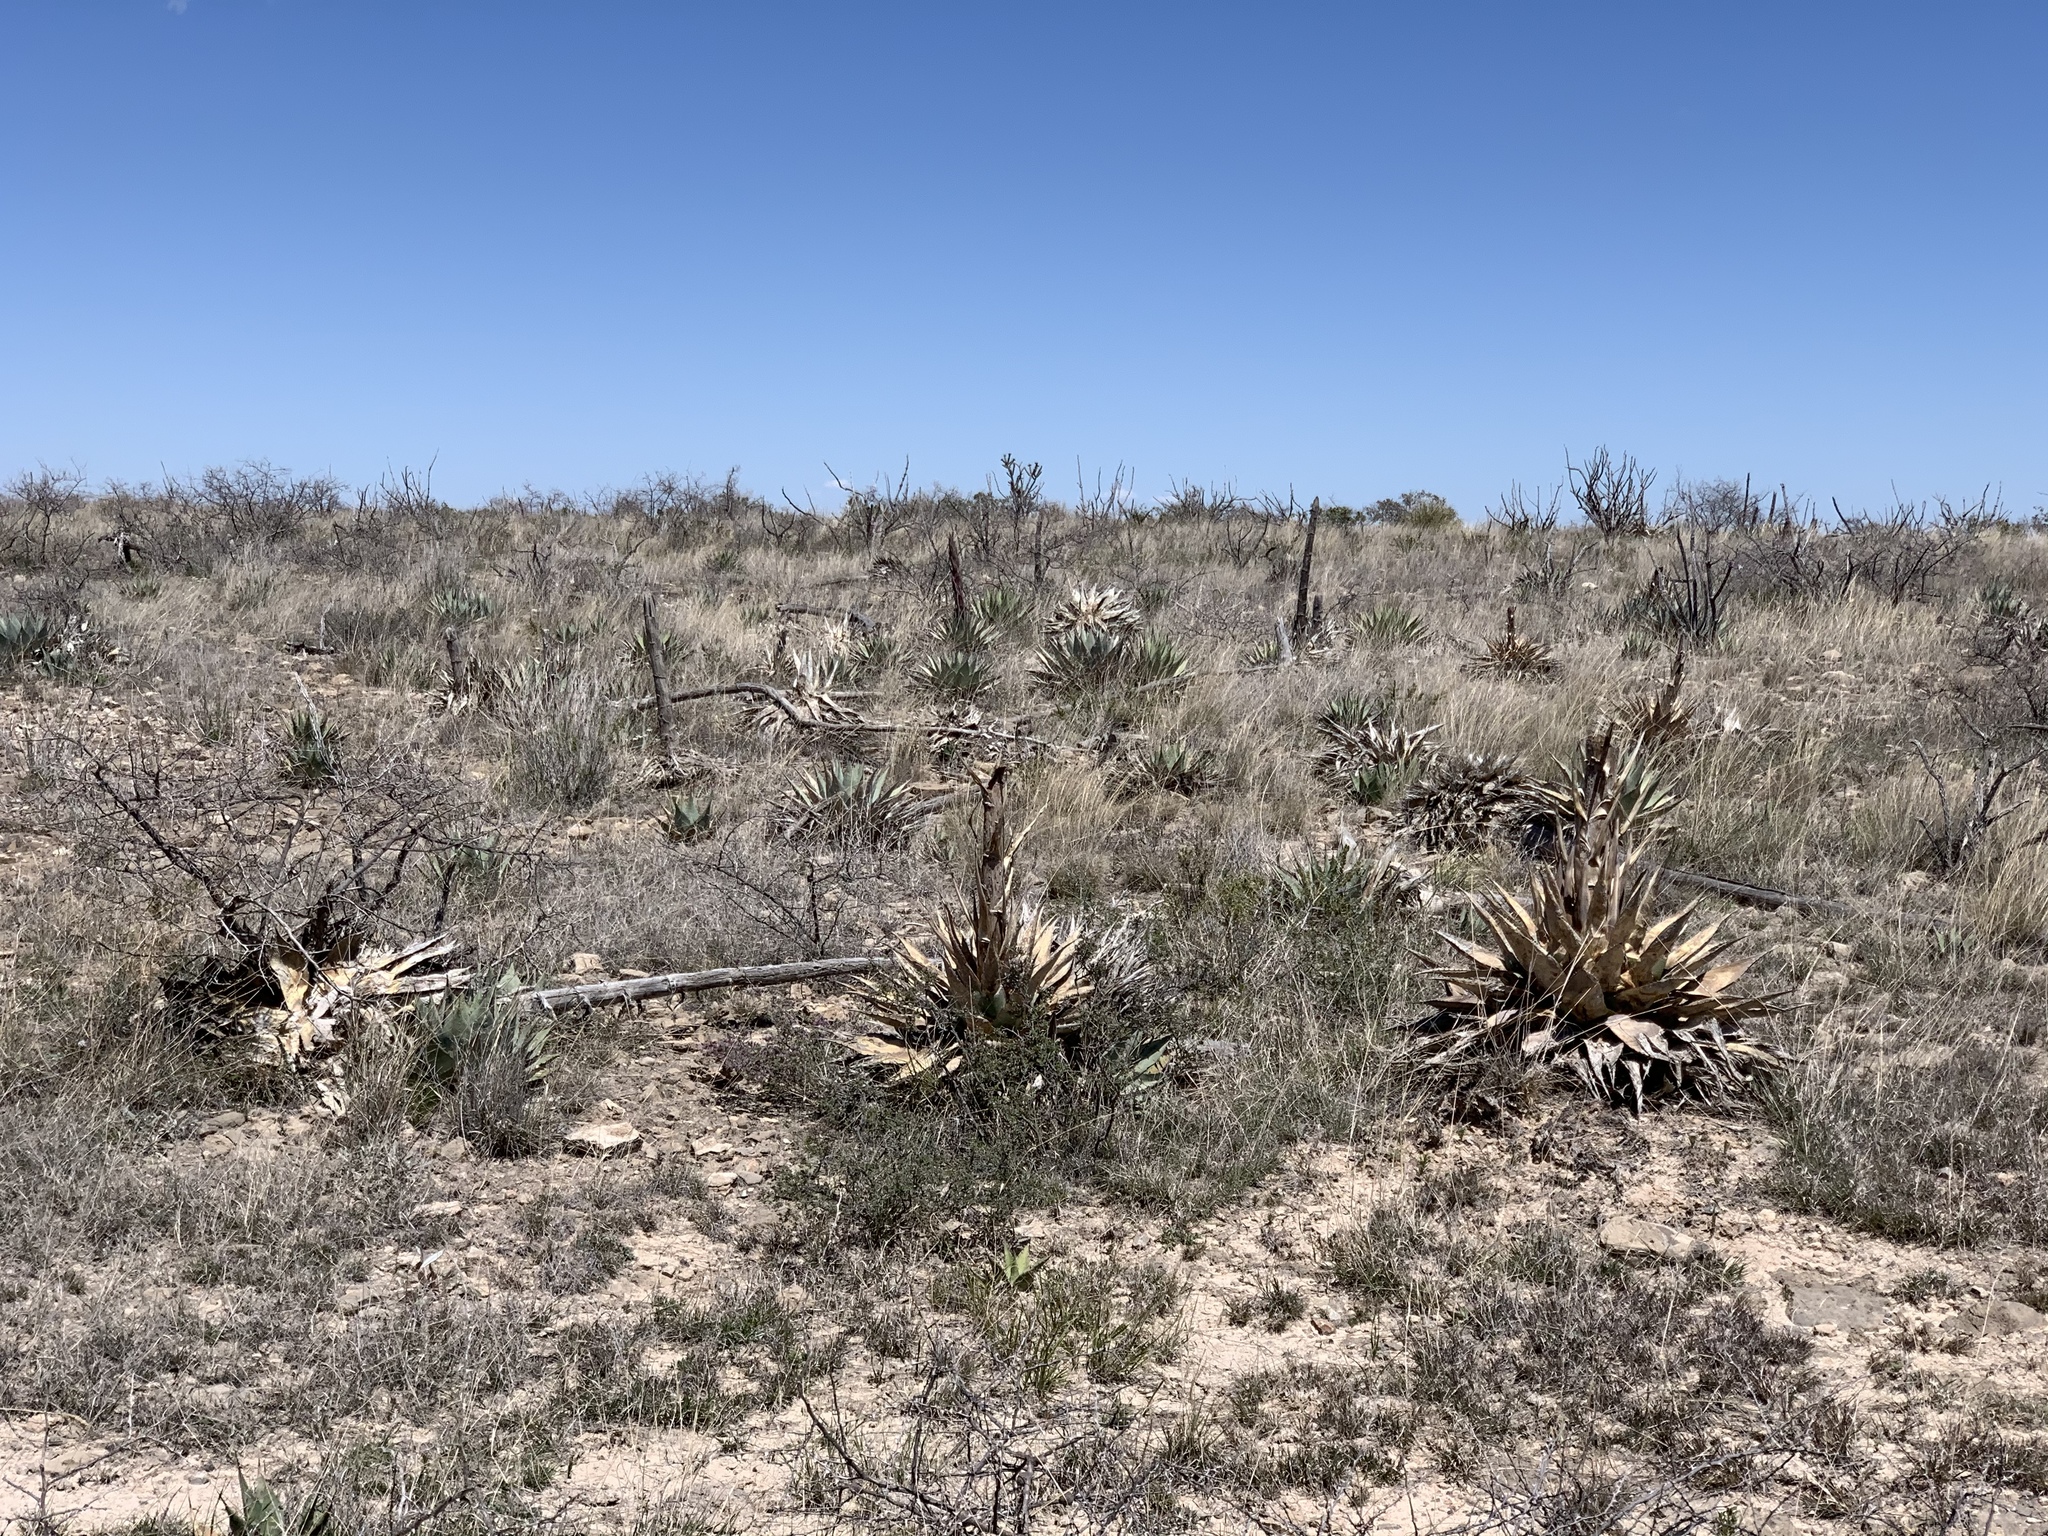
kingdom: Plantae
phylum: Tracheophyta
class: Liliopsida
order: Asparagales
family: Asparagaceae
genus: Agave
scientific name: Agave parryi
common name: Parry's agave
